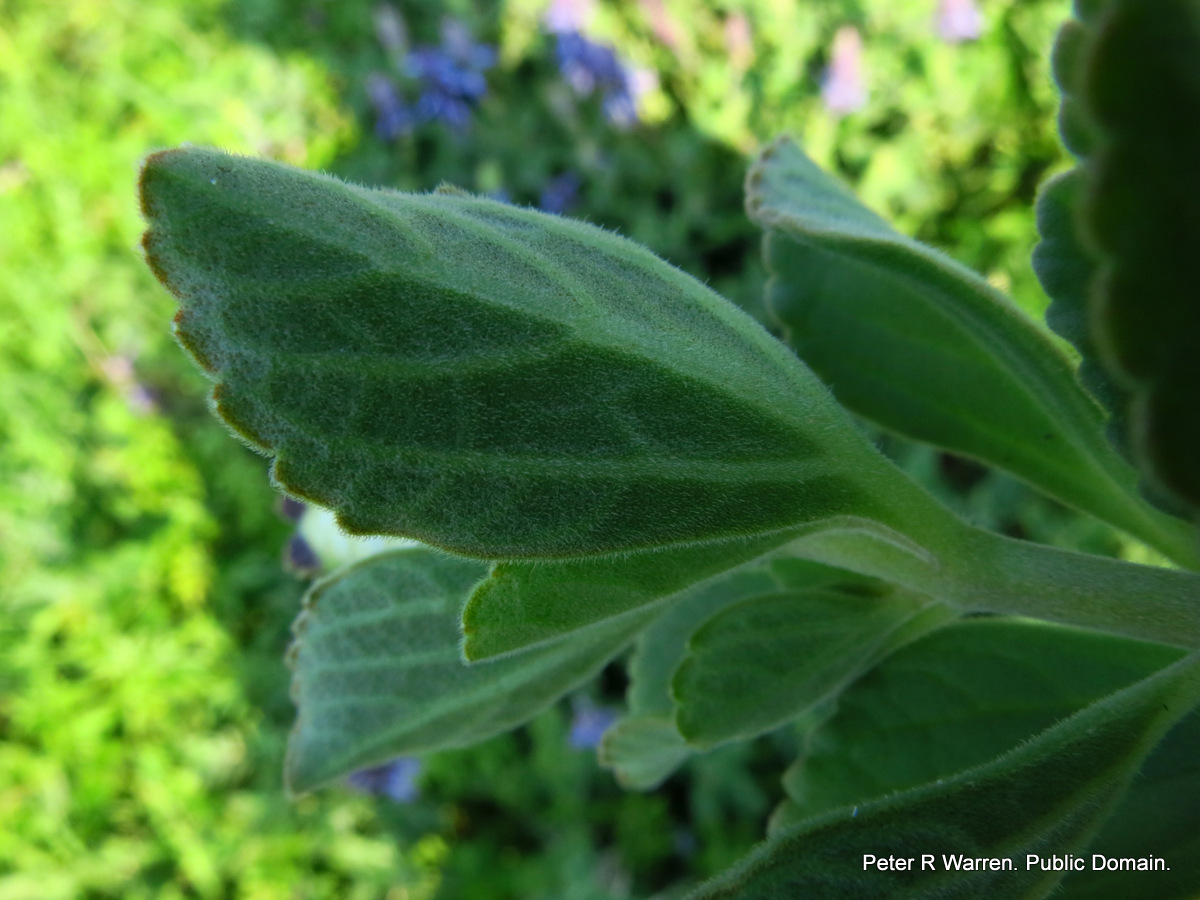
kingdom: Plantae
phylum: Tracheophyta
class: Magnoliopsida
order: Lamiales
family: Lamiaceae
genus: Coleus
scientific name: Coleus neochilus
